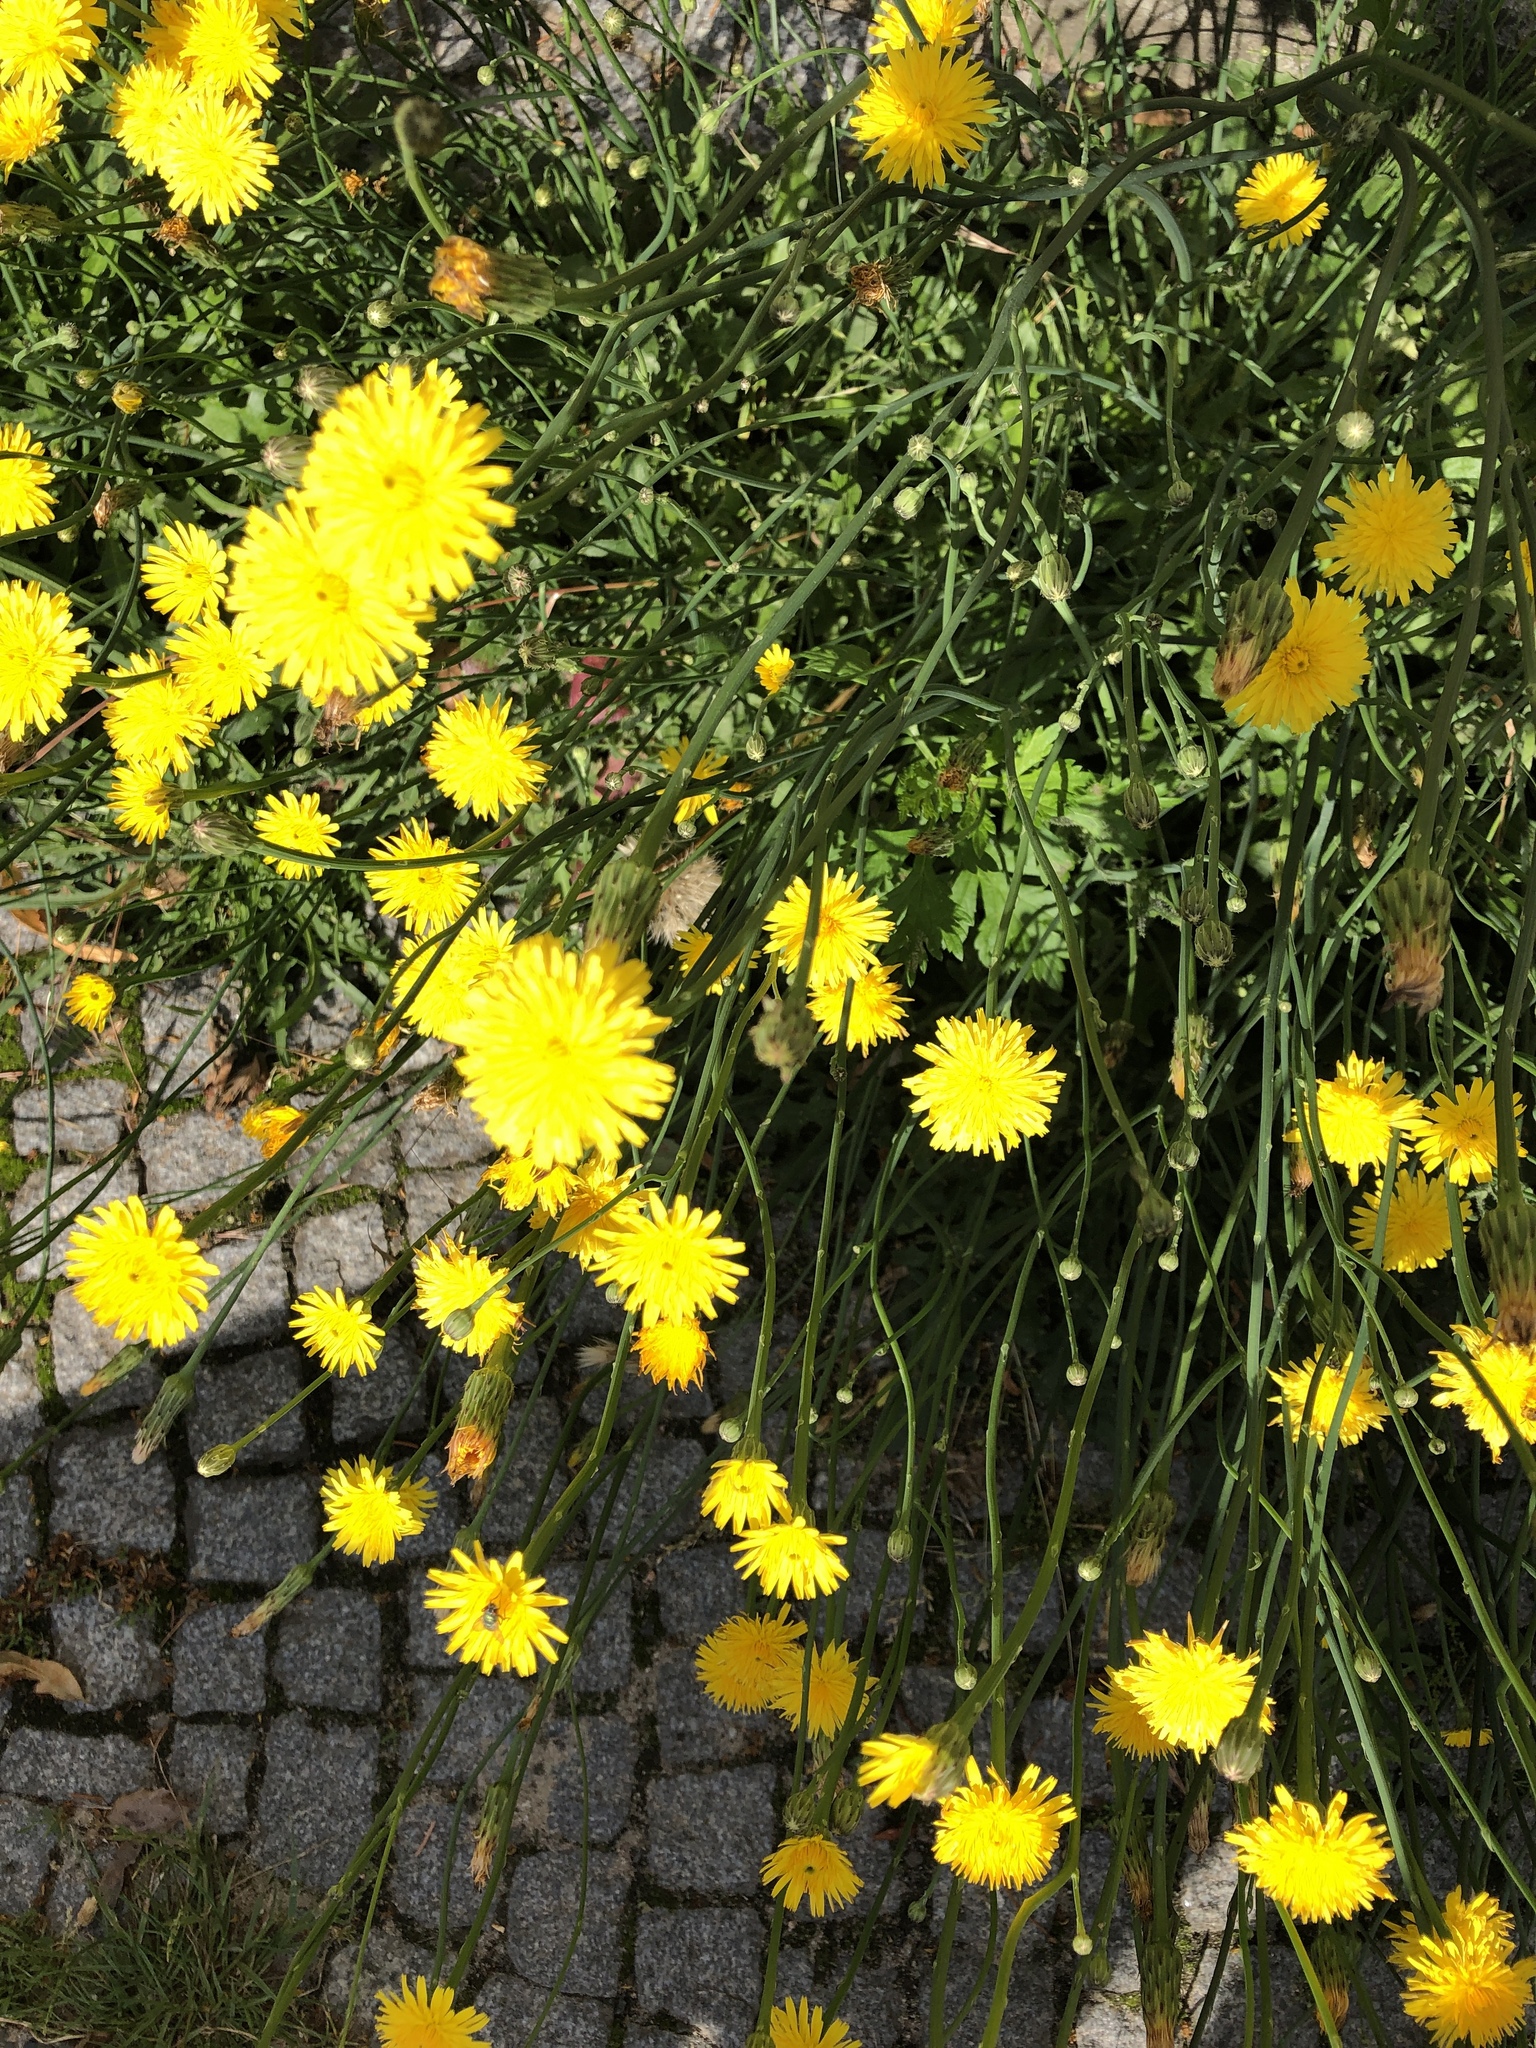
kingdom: Plantae
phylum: Tracheophyta
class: Magnoliopsida
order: Asterales
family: Asteraceae
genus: Hypochaeris
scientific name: Hypochaeris radicata
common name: Flatweed
